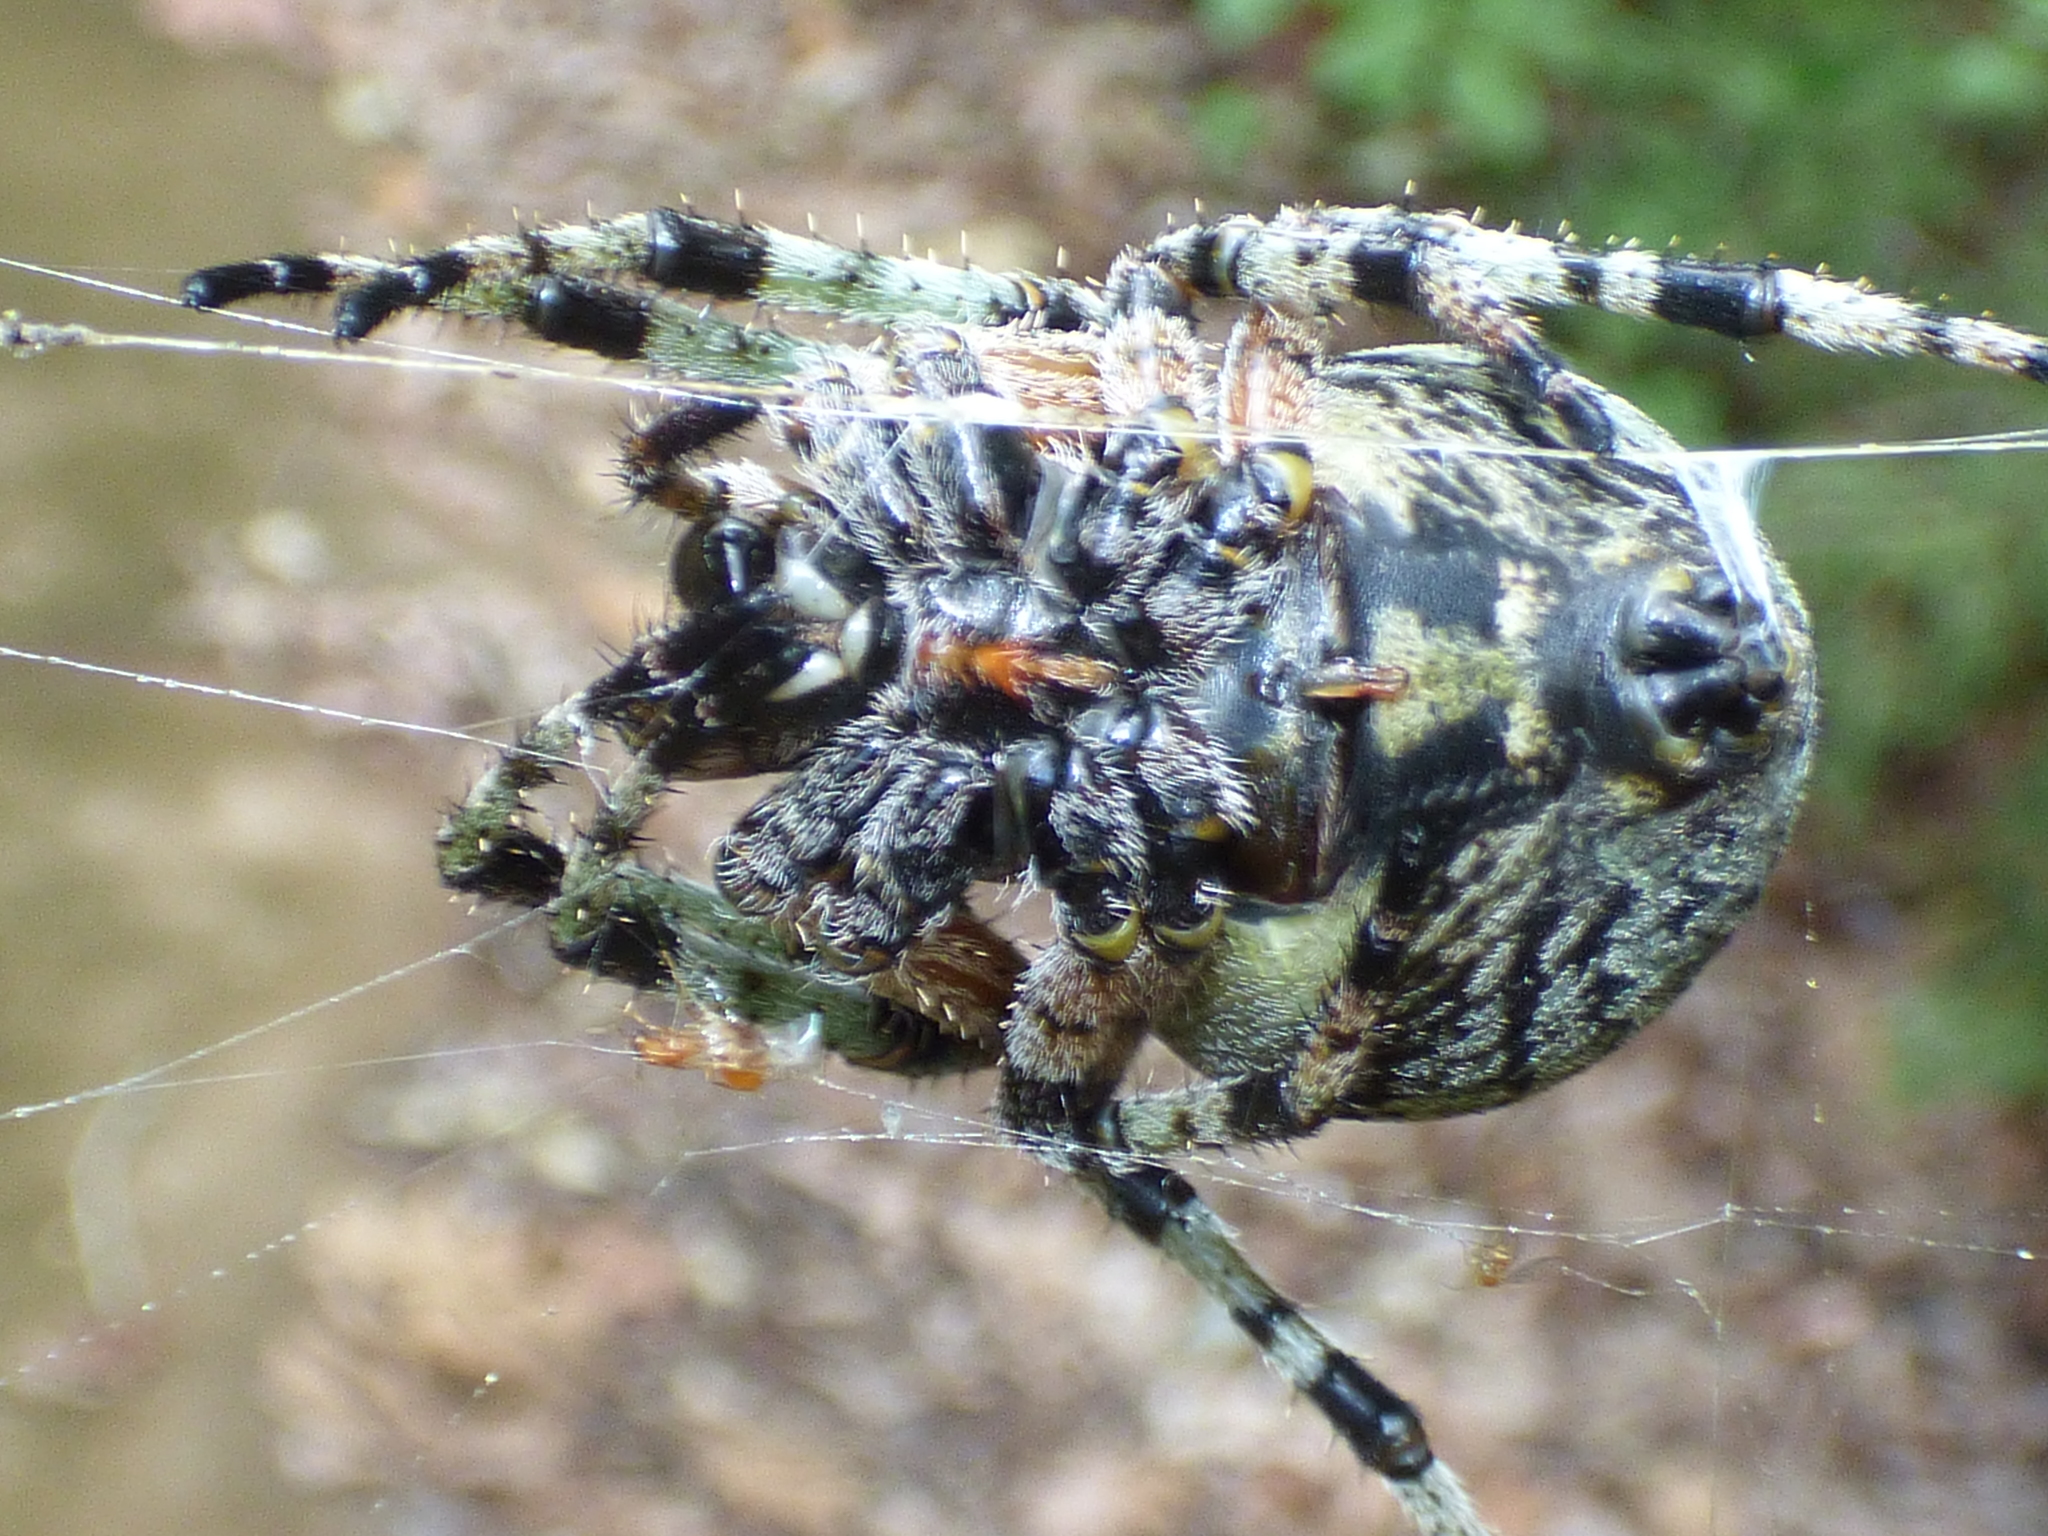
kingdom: Animalia
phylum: Arthropoda
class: Arachnida
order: Araneae
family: Araneidae
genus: Araneus
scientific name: Araneus bicentenarius
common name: Giant lichen orbweaver
